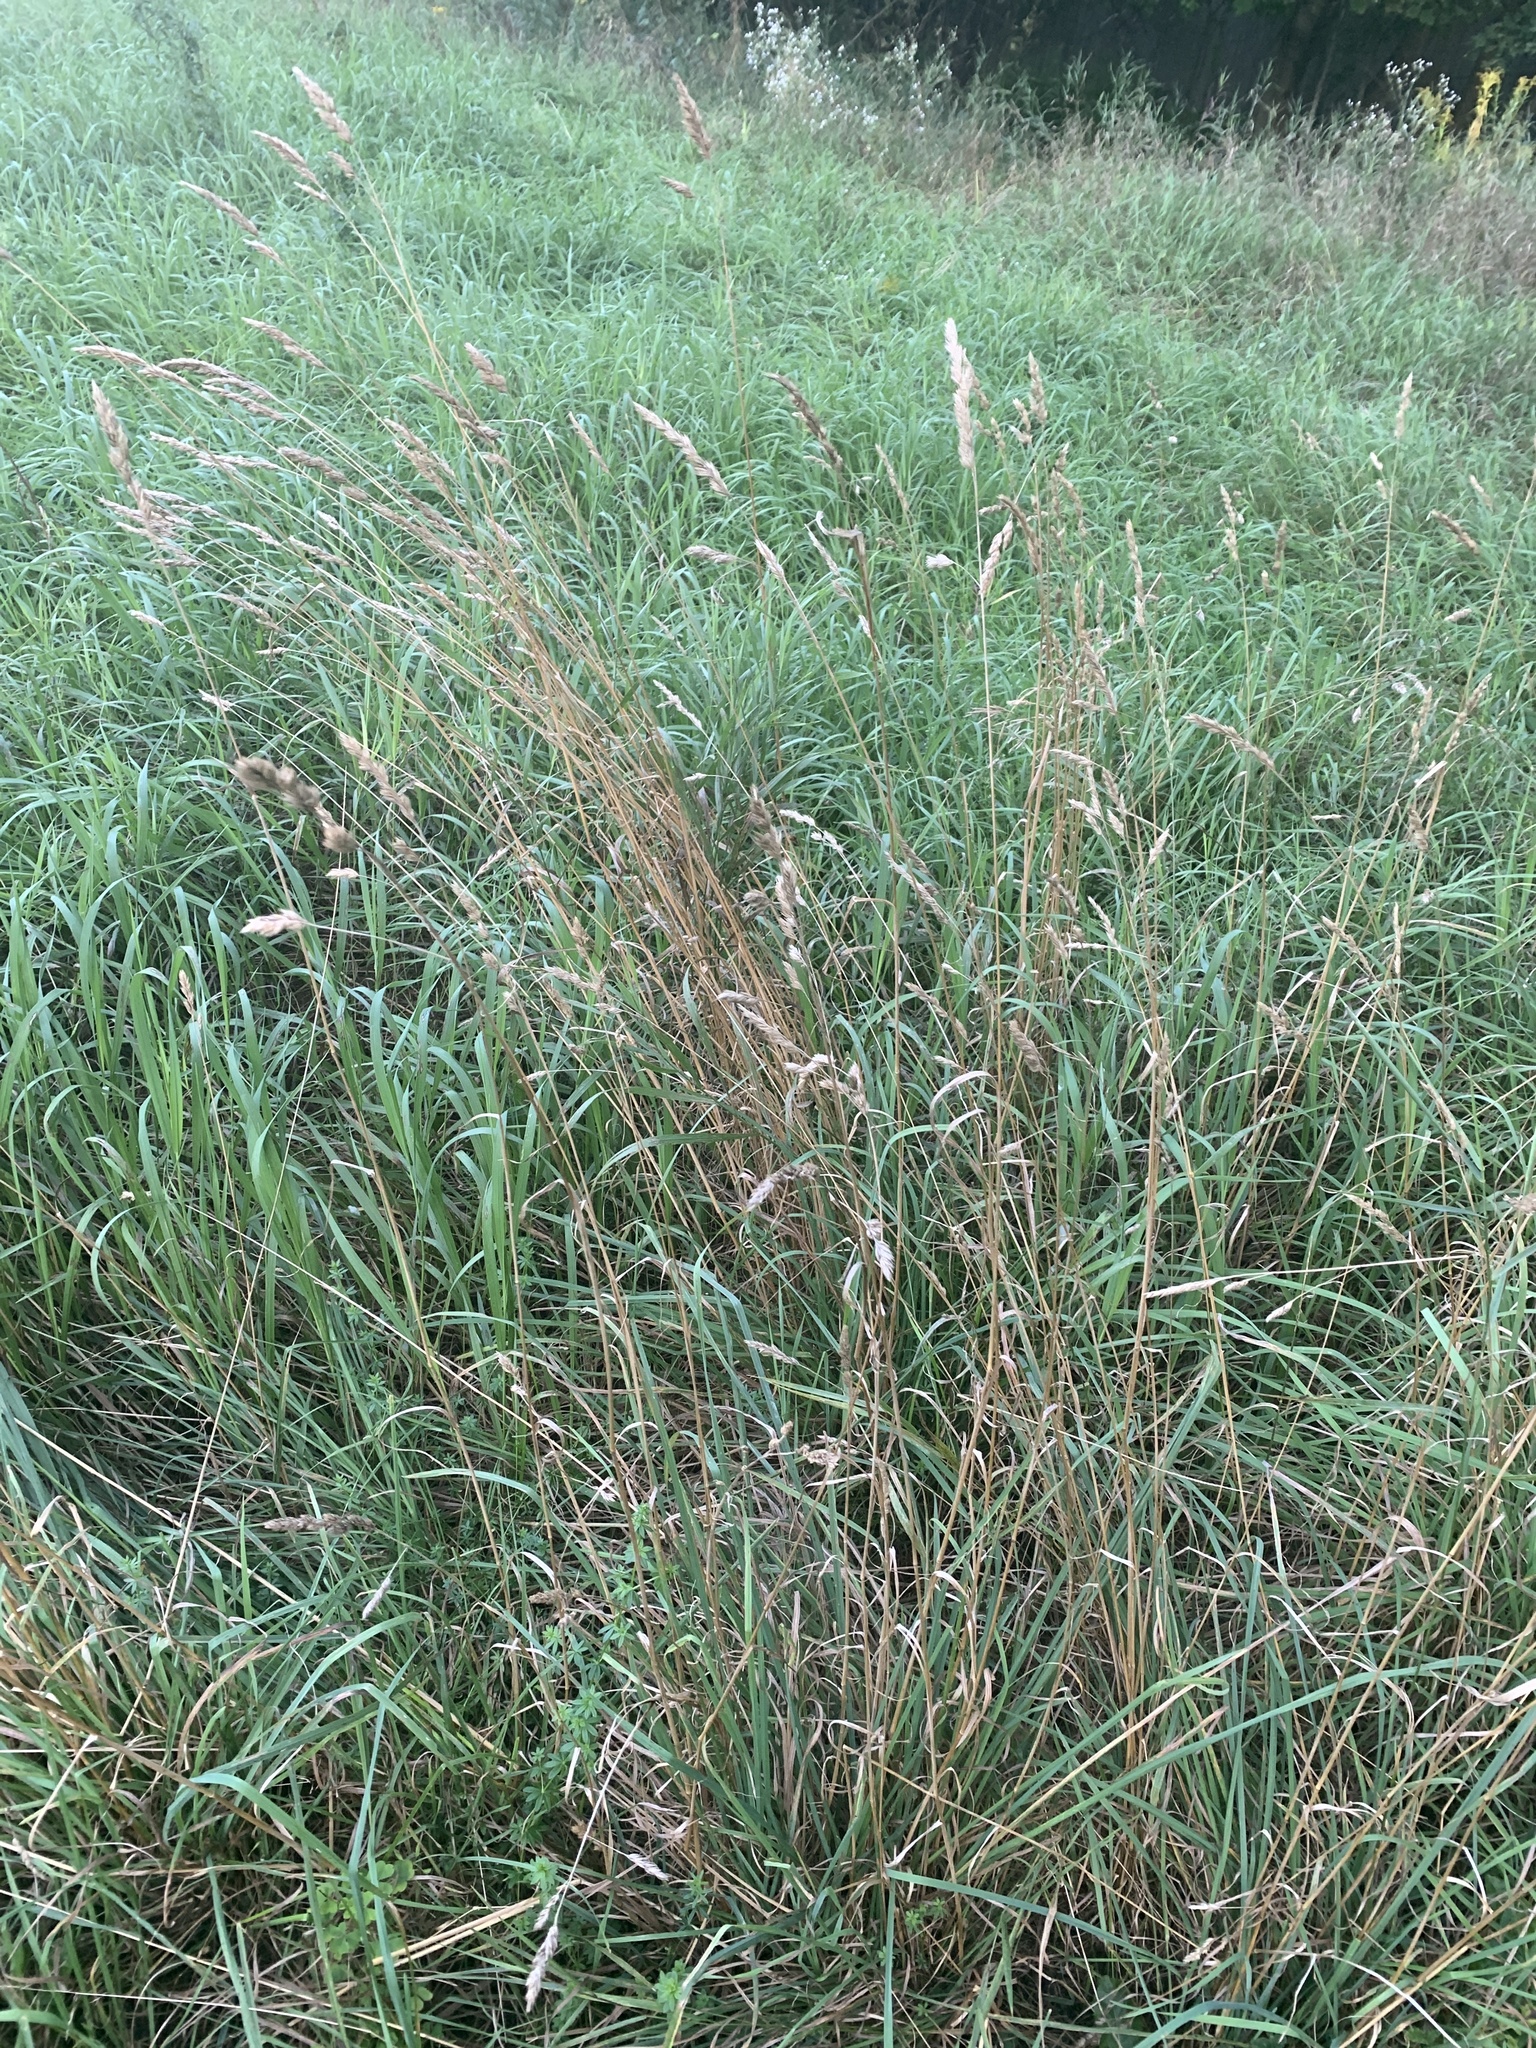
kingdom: Plantae
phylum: Tracheophyta
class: Liliopsida
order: Poales
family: Poaceae
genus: Dactylis
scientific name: Dactylis glomerata
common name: Orchardgrass
